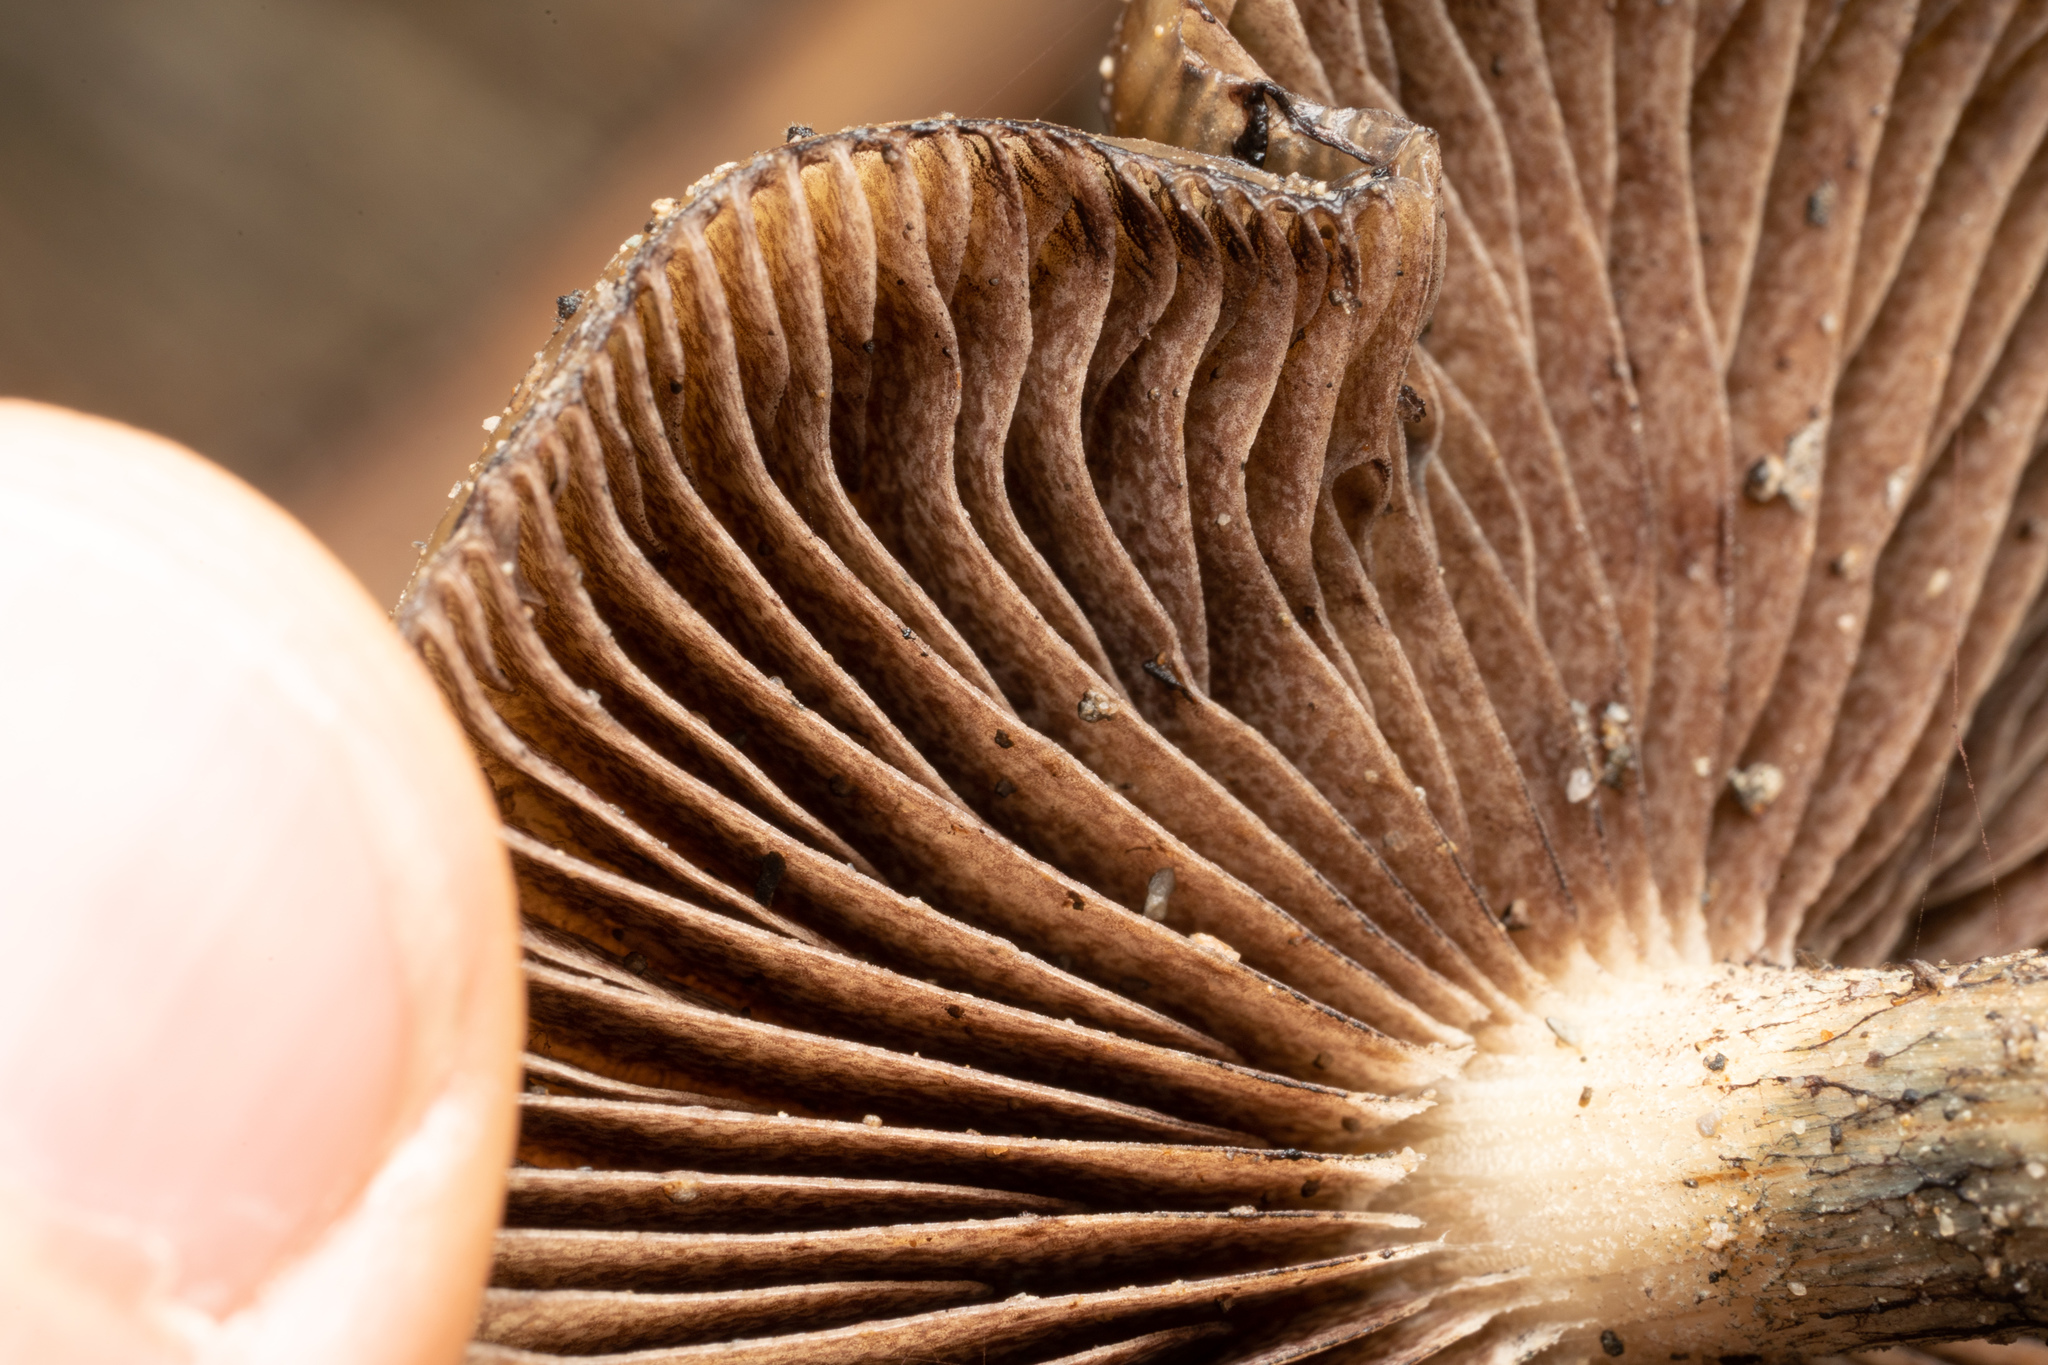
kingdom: Fungi
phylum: Basidiomycota
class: Agaricomycetes
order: Agaricales
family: Hymenogastraceae
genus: Psilocybe
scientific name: Psilocybe subaeruginosa
